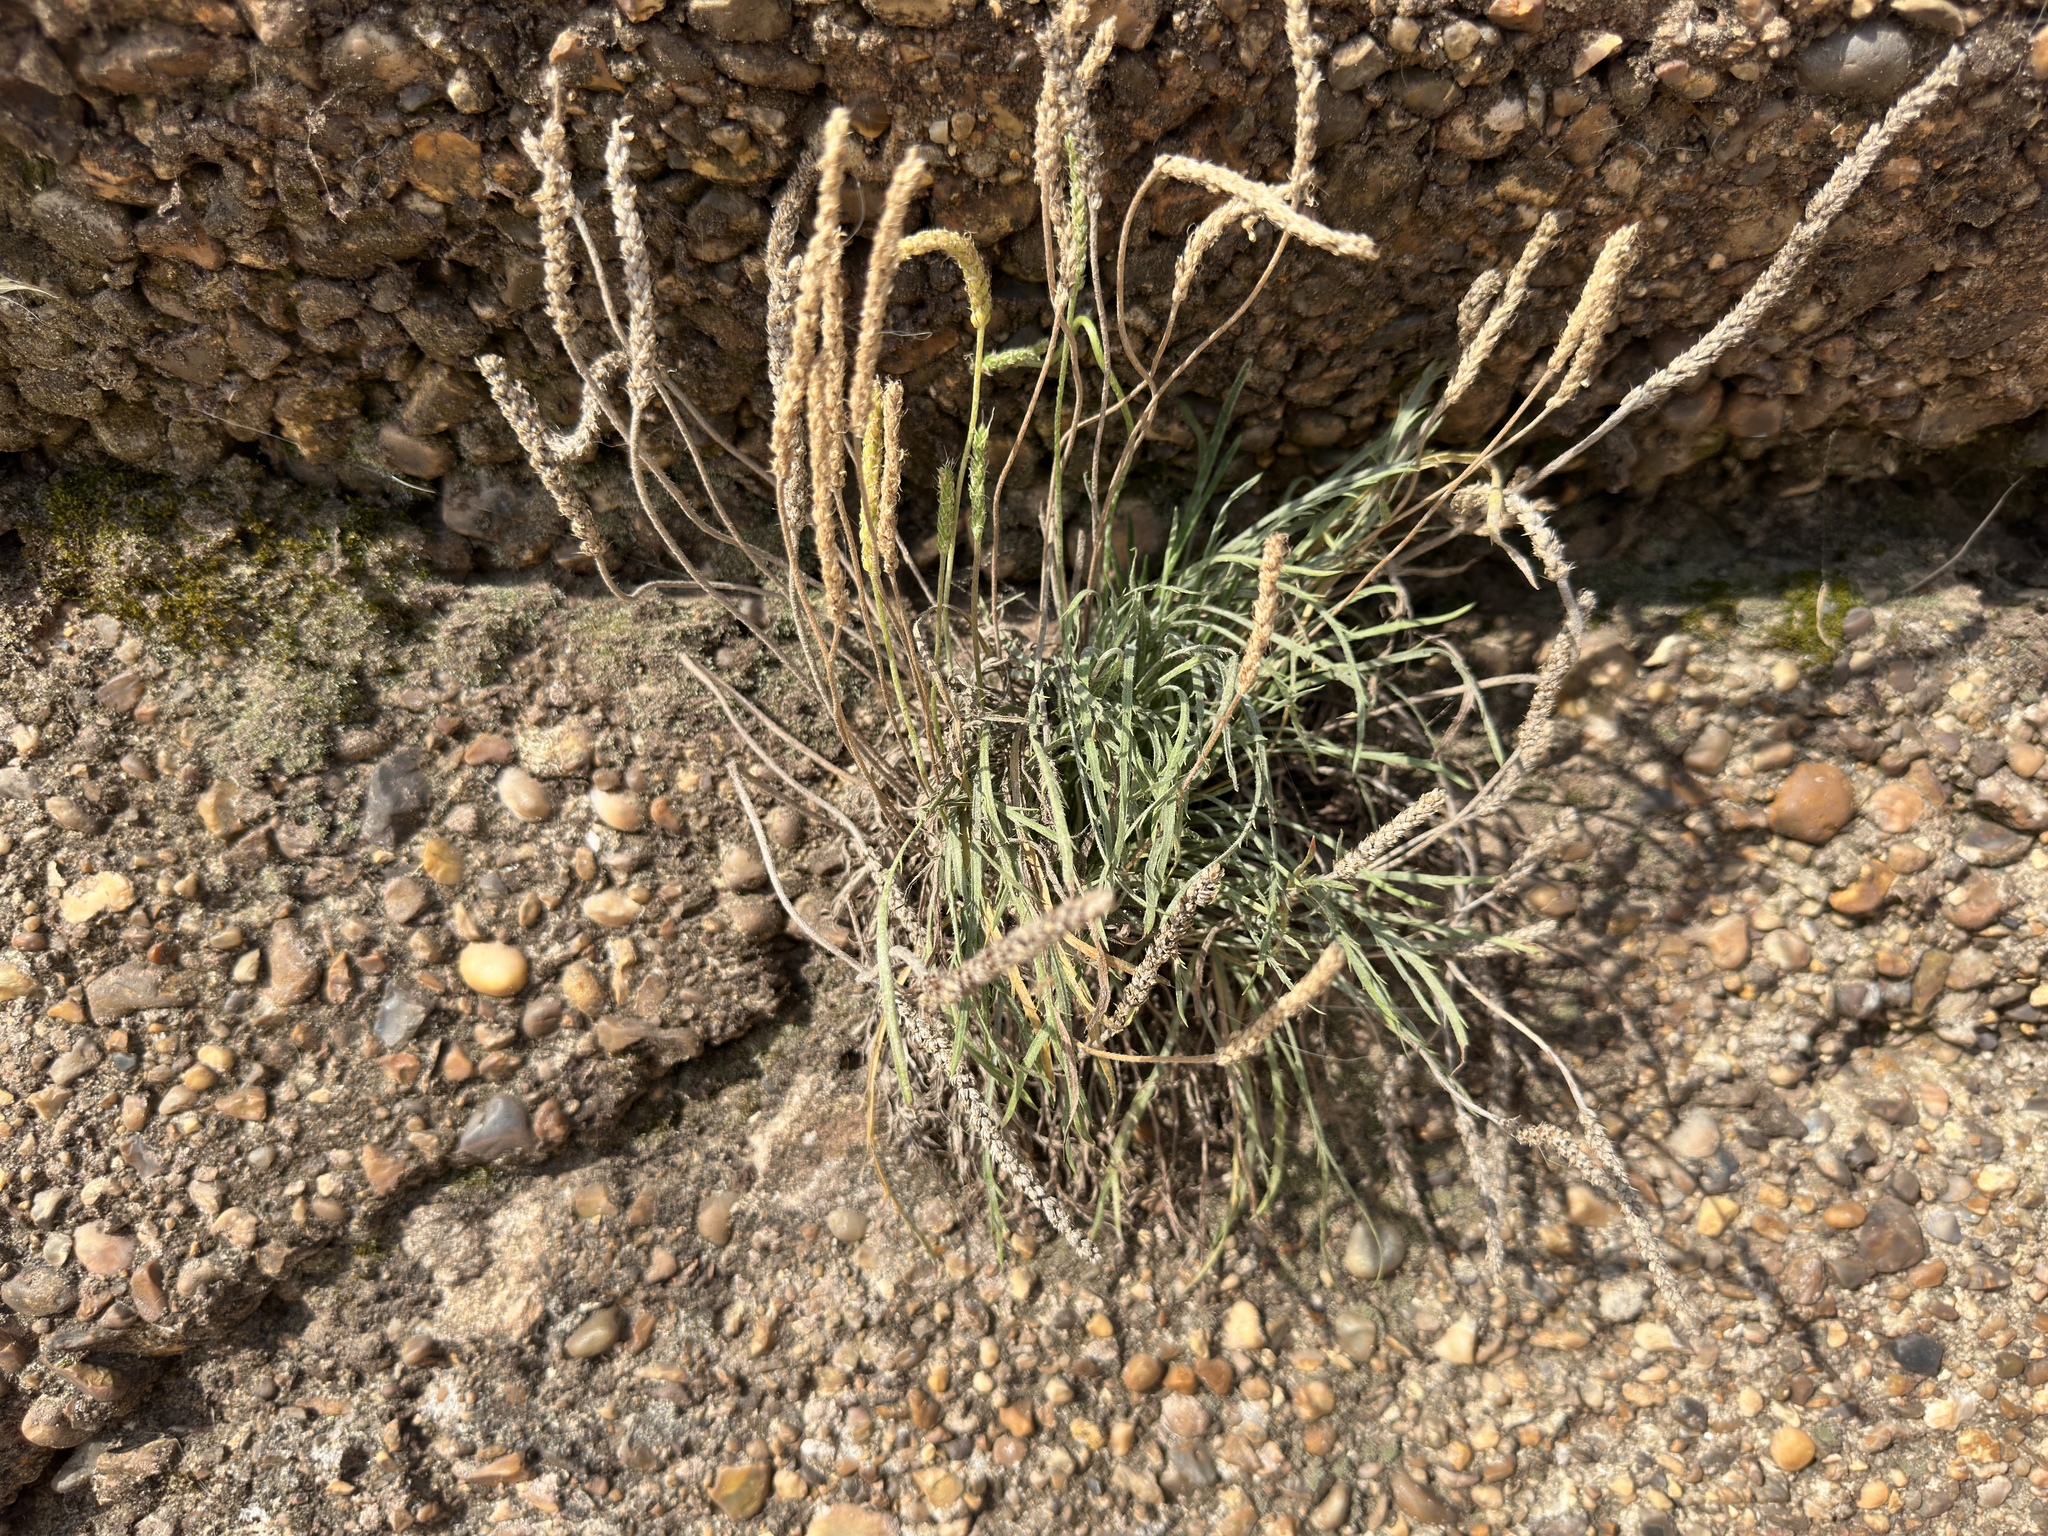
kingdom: Plantae
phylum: Tracheophyta
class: Magnoliopsida
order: Lamiales
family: Plantaginaceae
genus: Plantago
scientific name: Plantago coronopus
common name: Buck's-horn plantain
